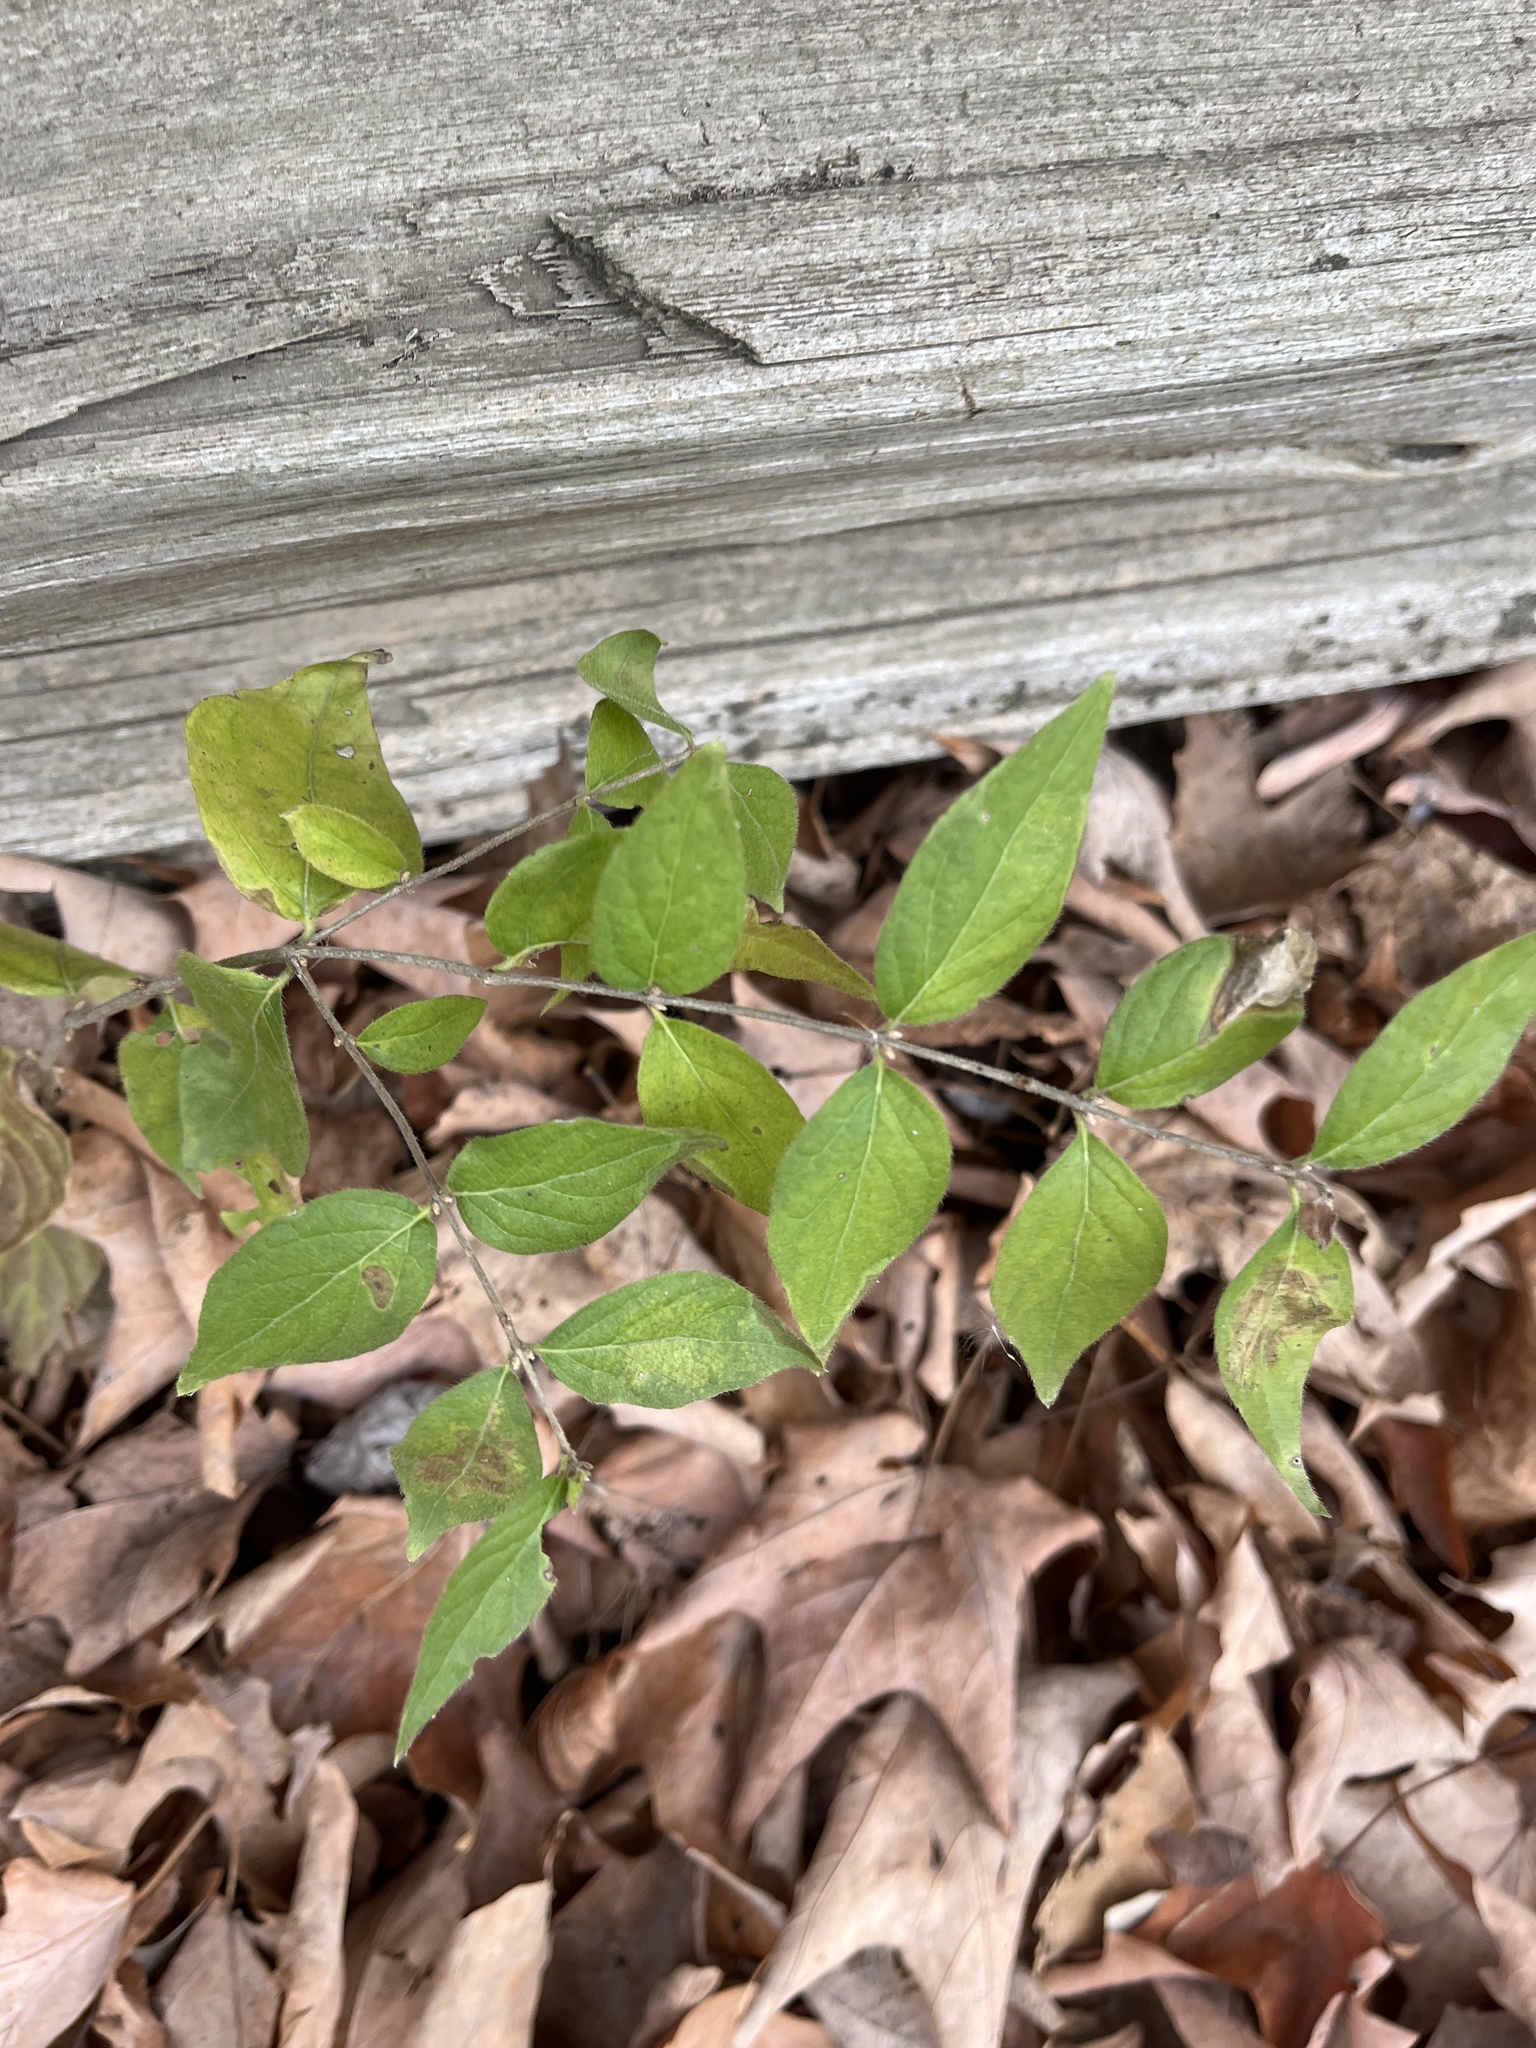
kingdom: Plantae
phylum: Tracheophyta
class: Magnoliopsida
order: Dipsacales
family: Caprifoliaceae
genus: Lonicera
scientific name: Lonicera maackii
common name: Amur honeysuckle
